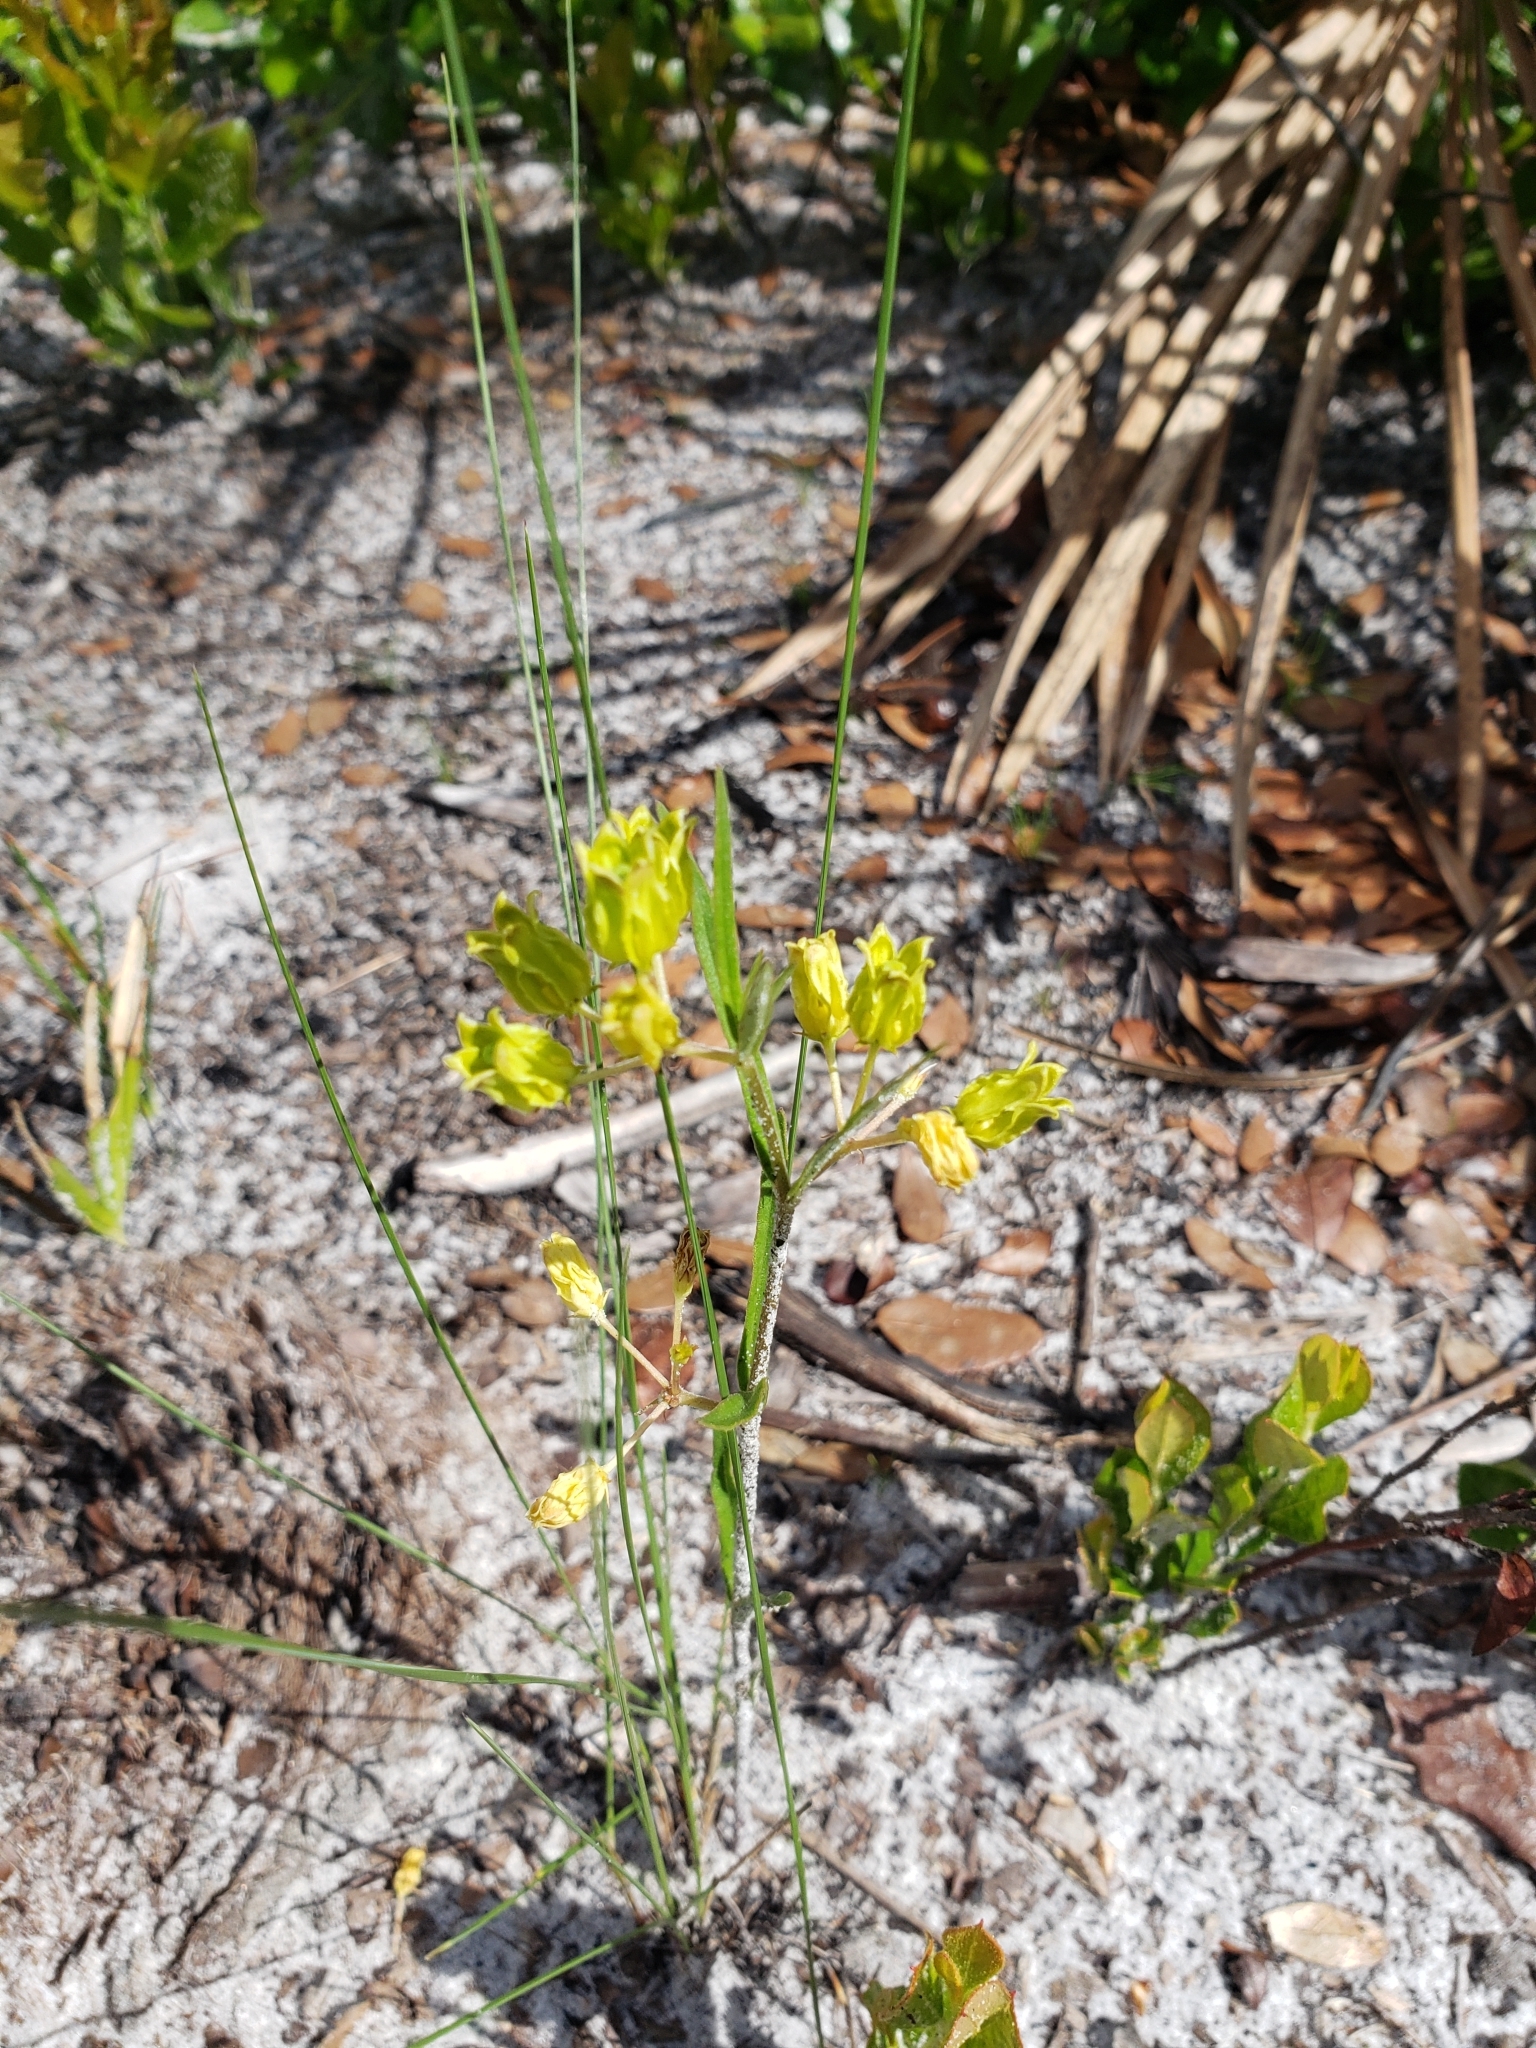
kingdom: Plantae
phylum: Tracheophyta
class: Magnoliopsida
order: Gentianales
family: Apocynaceae
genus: Asclepias
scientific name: Asclepias pedicellata
